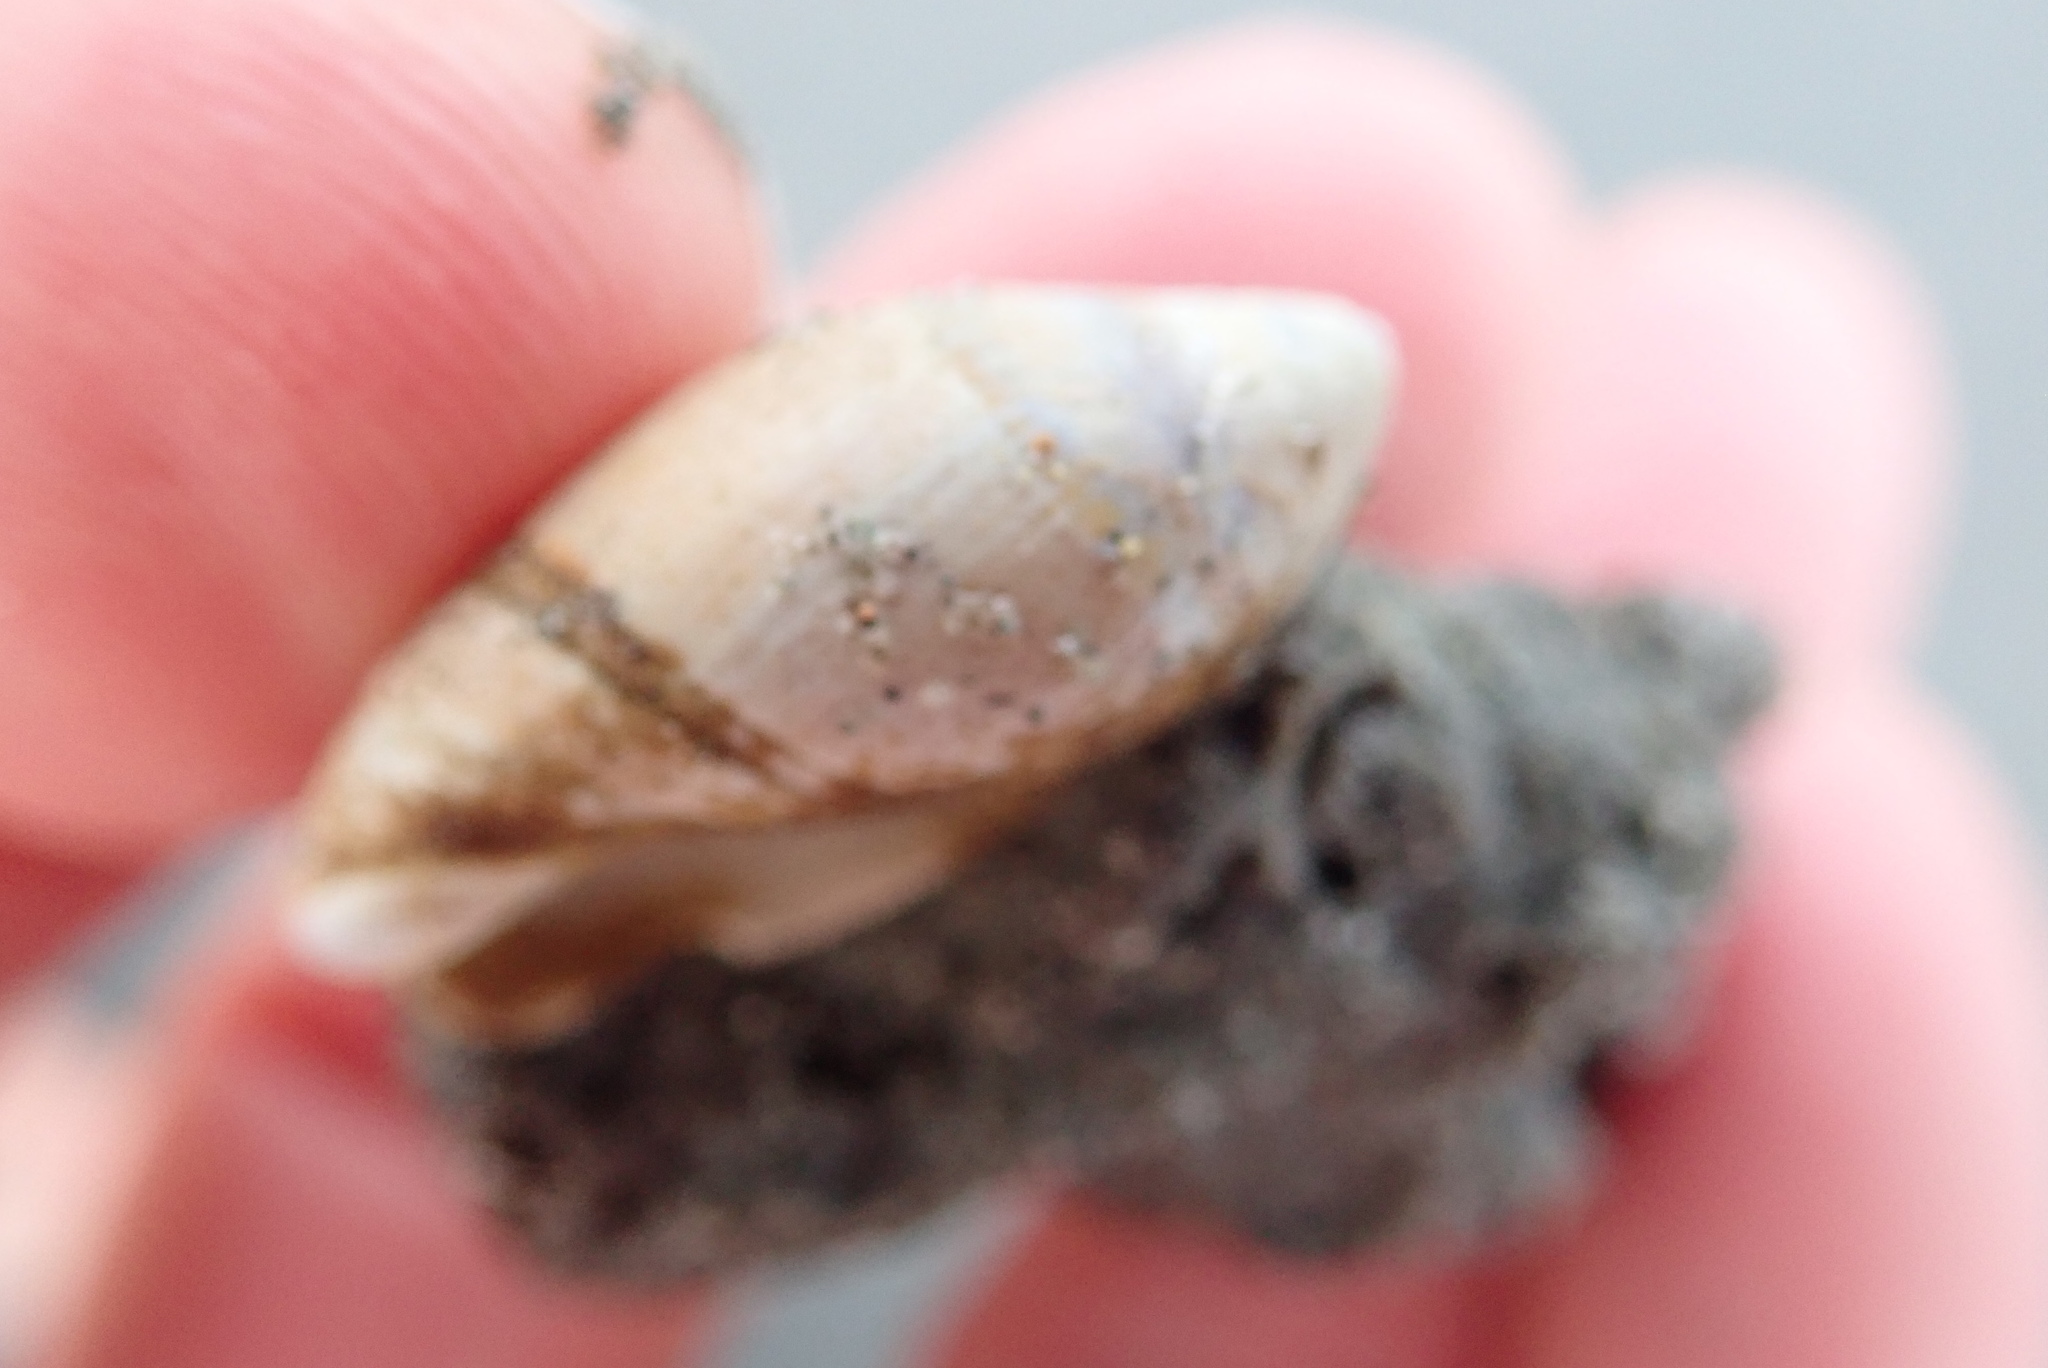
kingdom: Animalia
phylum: Annelida
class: Polychaeta
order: Sabellida
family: Sabellariidae
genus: Neosabellaria
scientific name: Neosabellaria kaiparaensis
